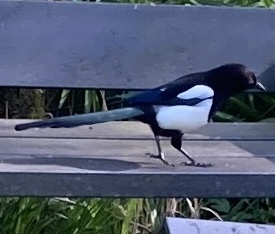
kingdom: Animalia
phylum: Chordata
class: Aves
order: Passeriformes
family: Corvidae
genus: Pica
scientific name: Pica pica
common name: Eurasian magpie
